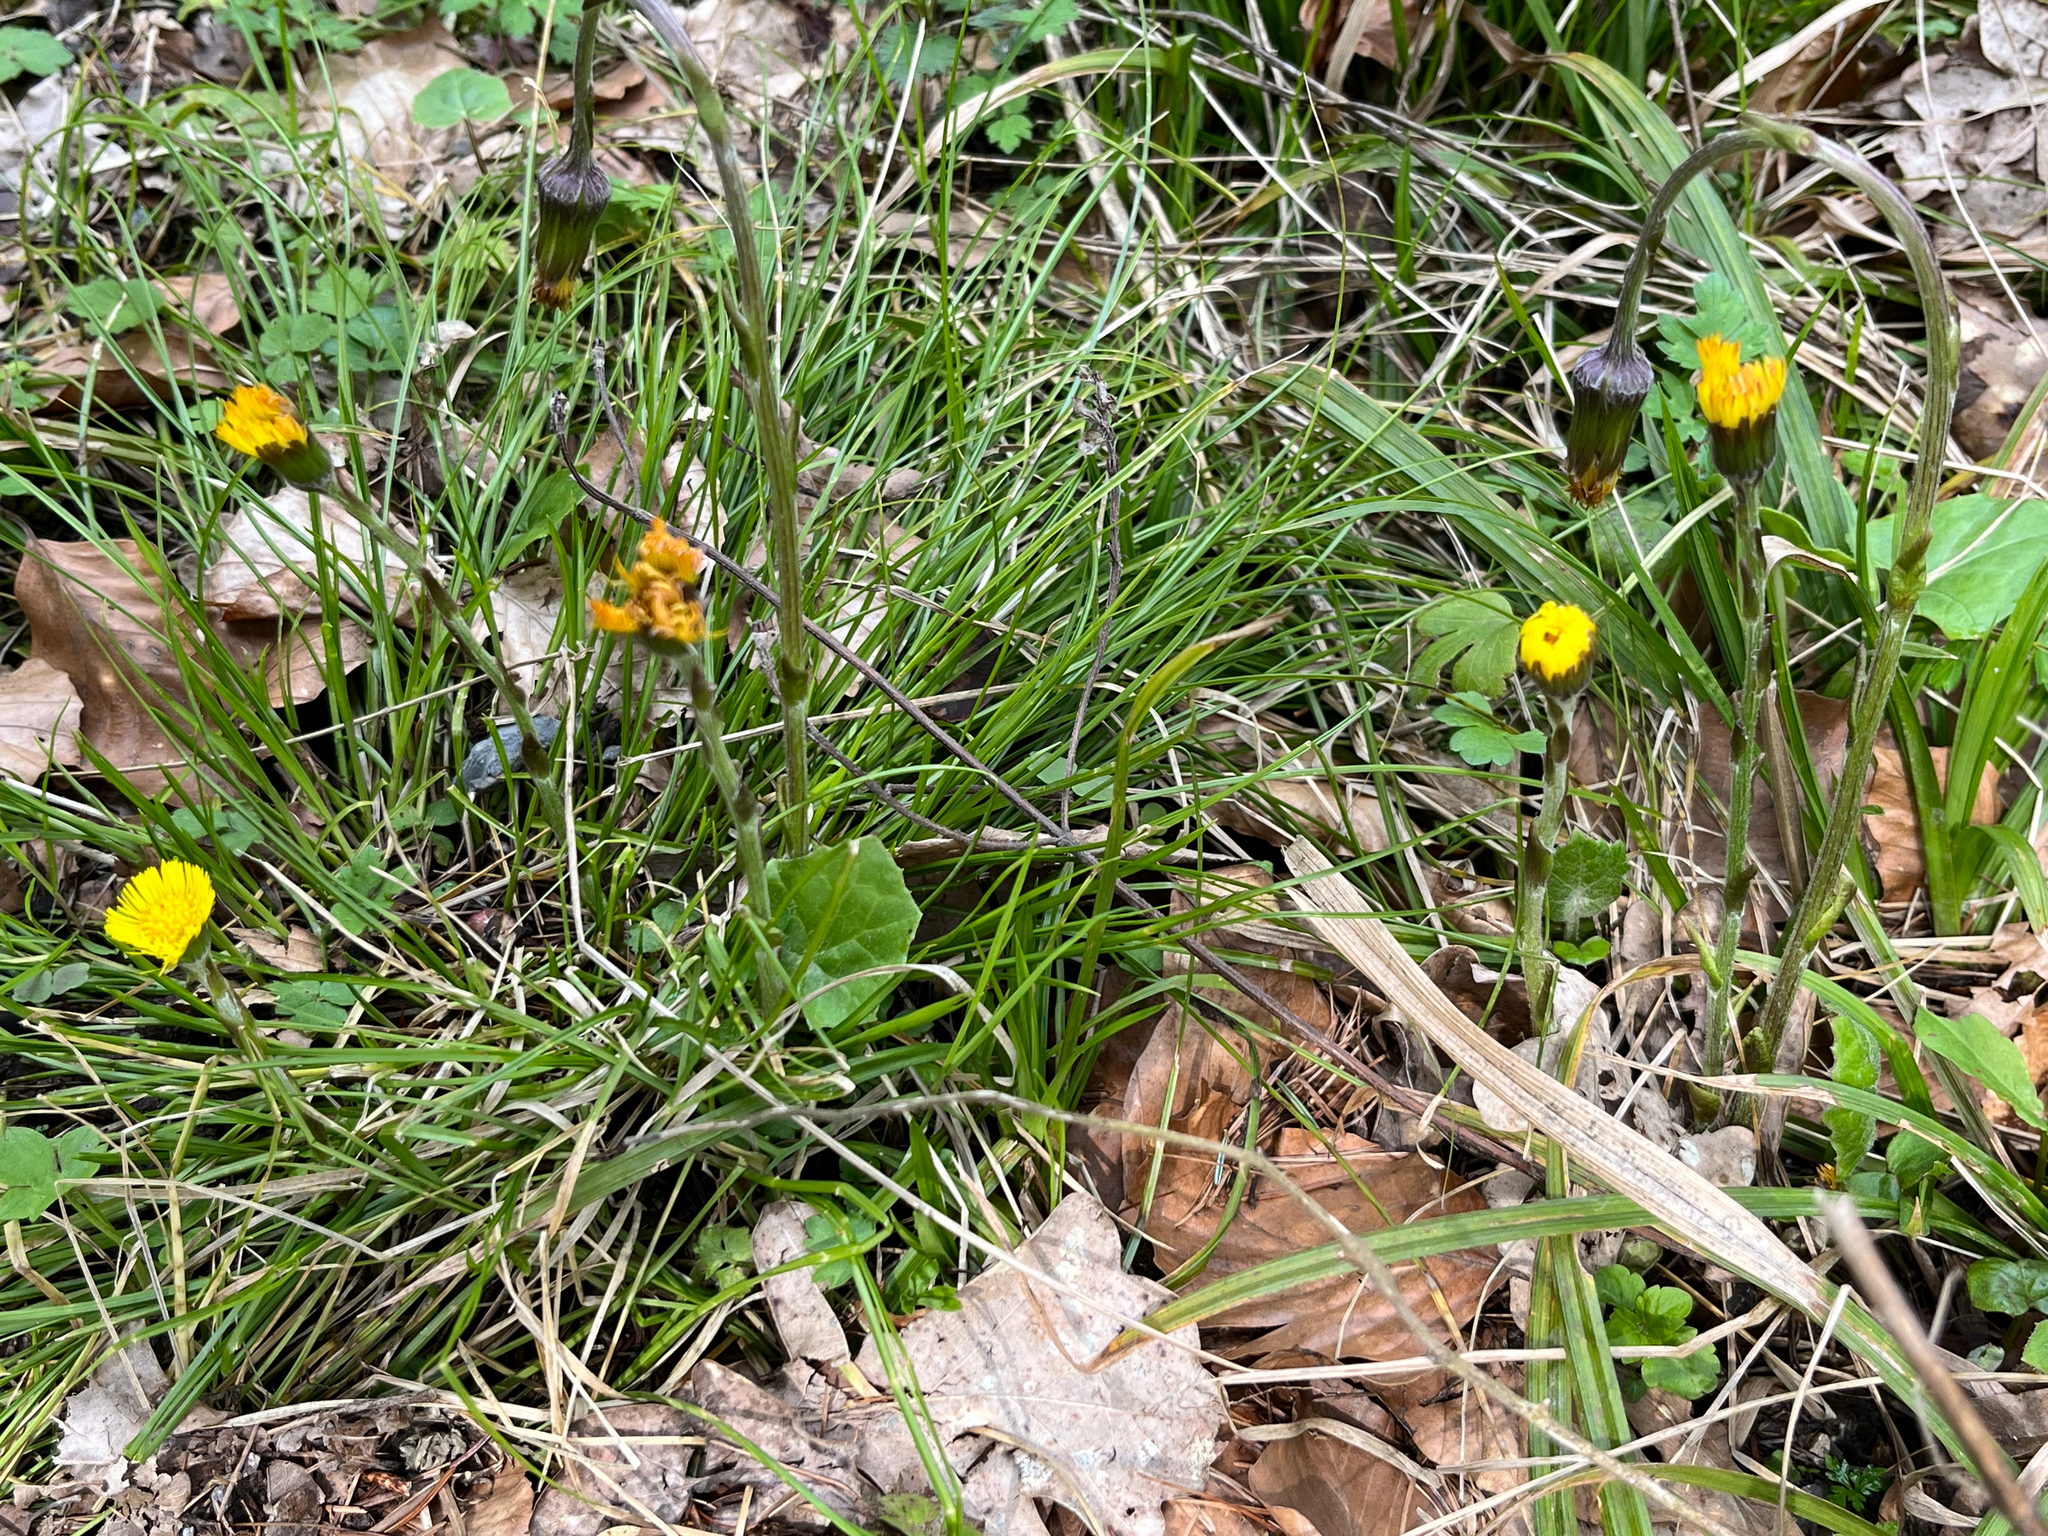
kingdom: Plantae
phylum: Tracheophyta
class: Magnoliopsida
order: Asterales
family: Asteraceae
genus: Tussilago
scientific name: Tussilago farfara
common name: Coltsfoot
